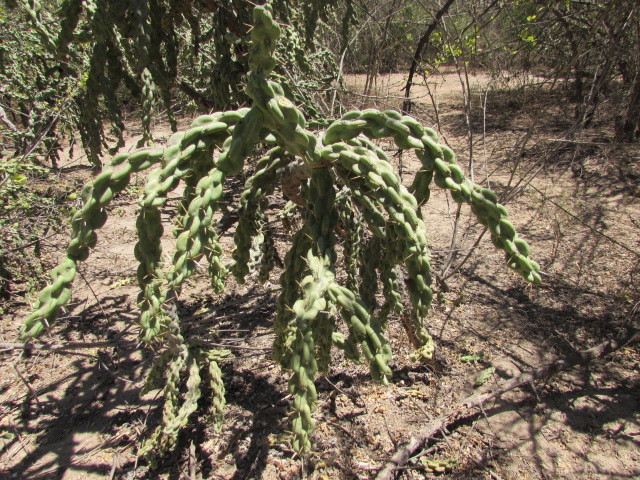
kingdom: Plantae
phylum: Tracheophyta
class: Magnoliopsida
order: Caryophyllales
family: Cactaceae
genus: Cylindropuntia
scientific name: Cylindropuntia fulgida
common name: Jumping cholla
